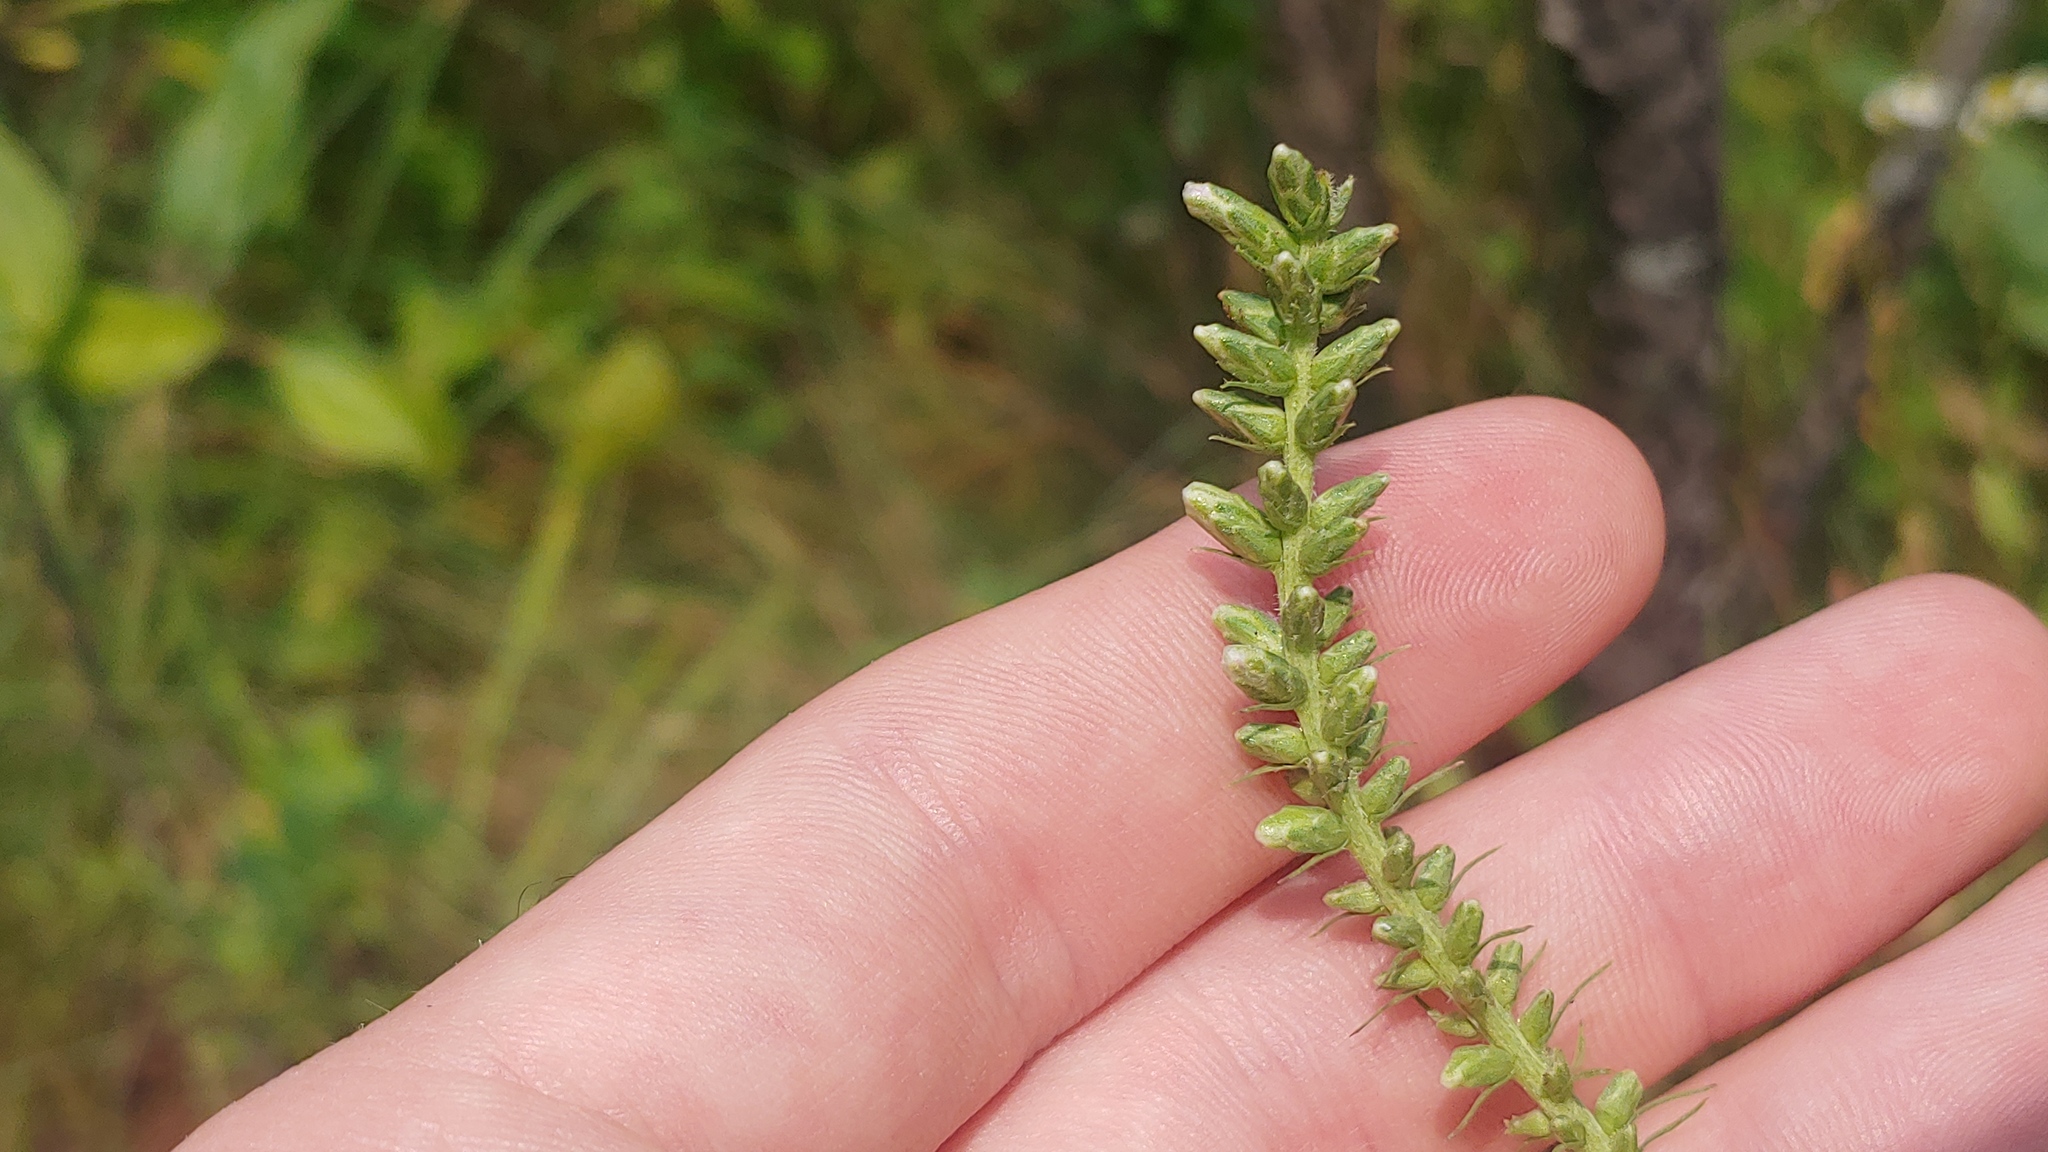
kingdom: Animalia
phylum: Arthropoda
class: Insecta
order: Diptera
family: Cecidomyiidae
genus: Asphondylia
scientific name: Asphondylia lacinariae
